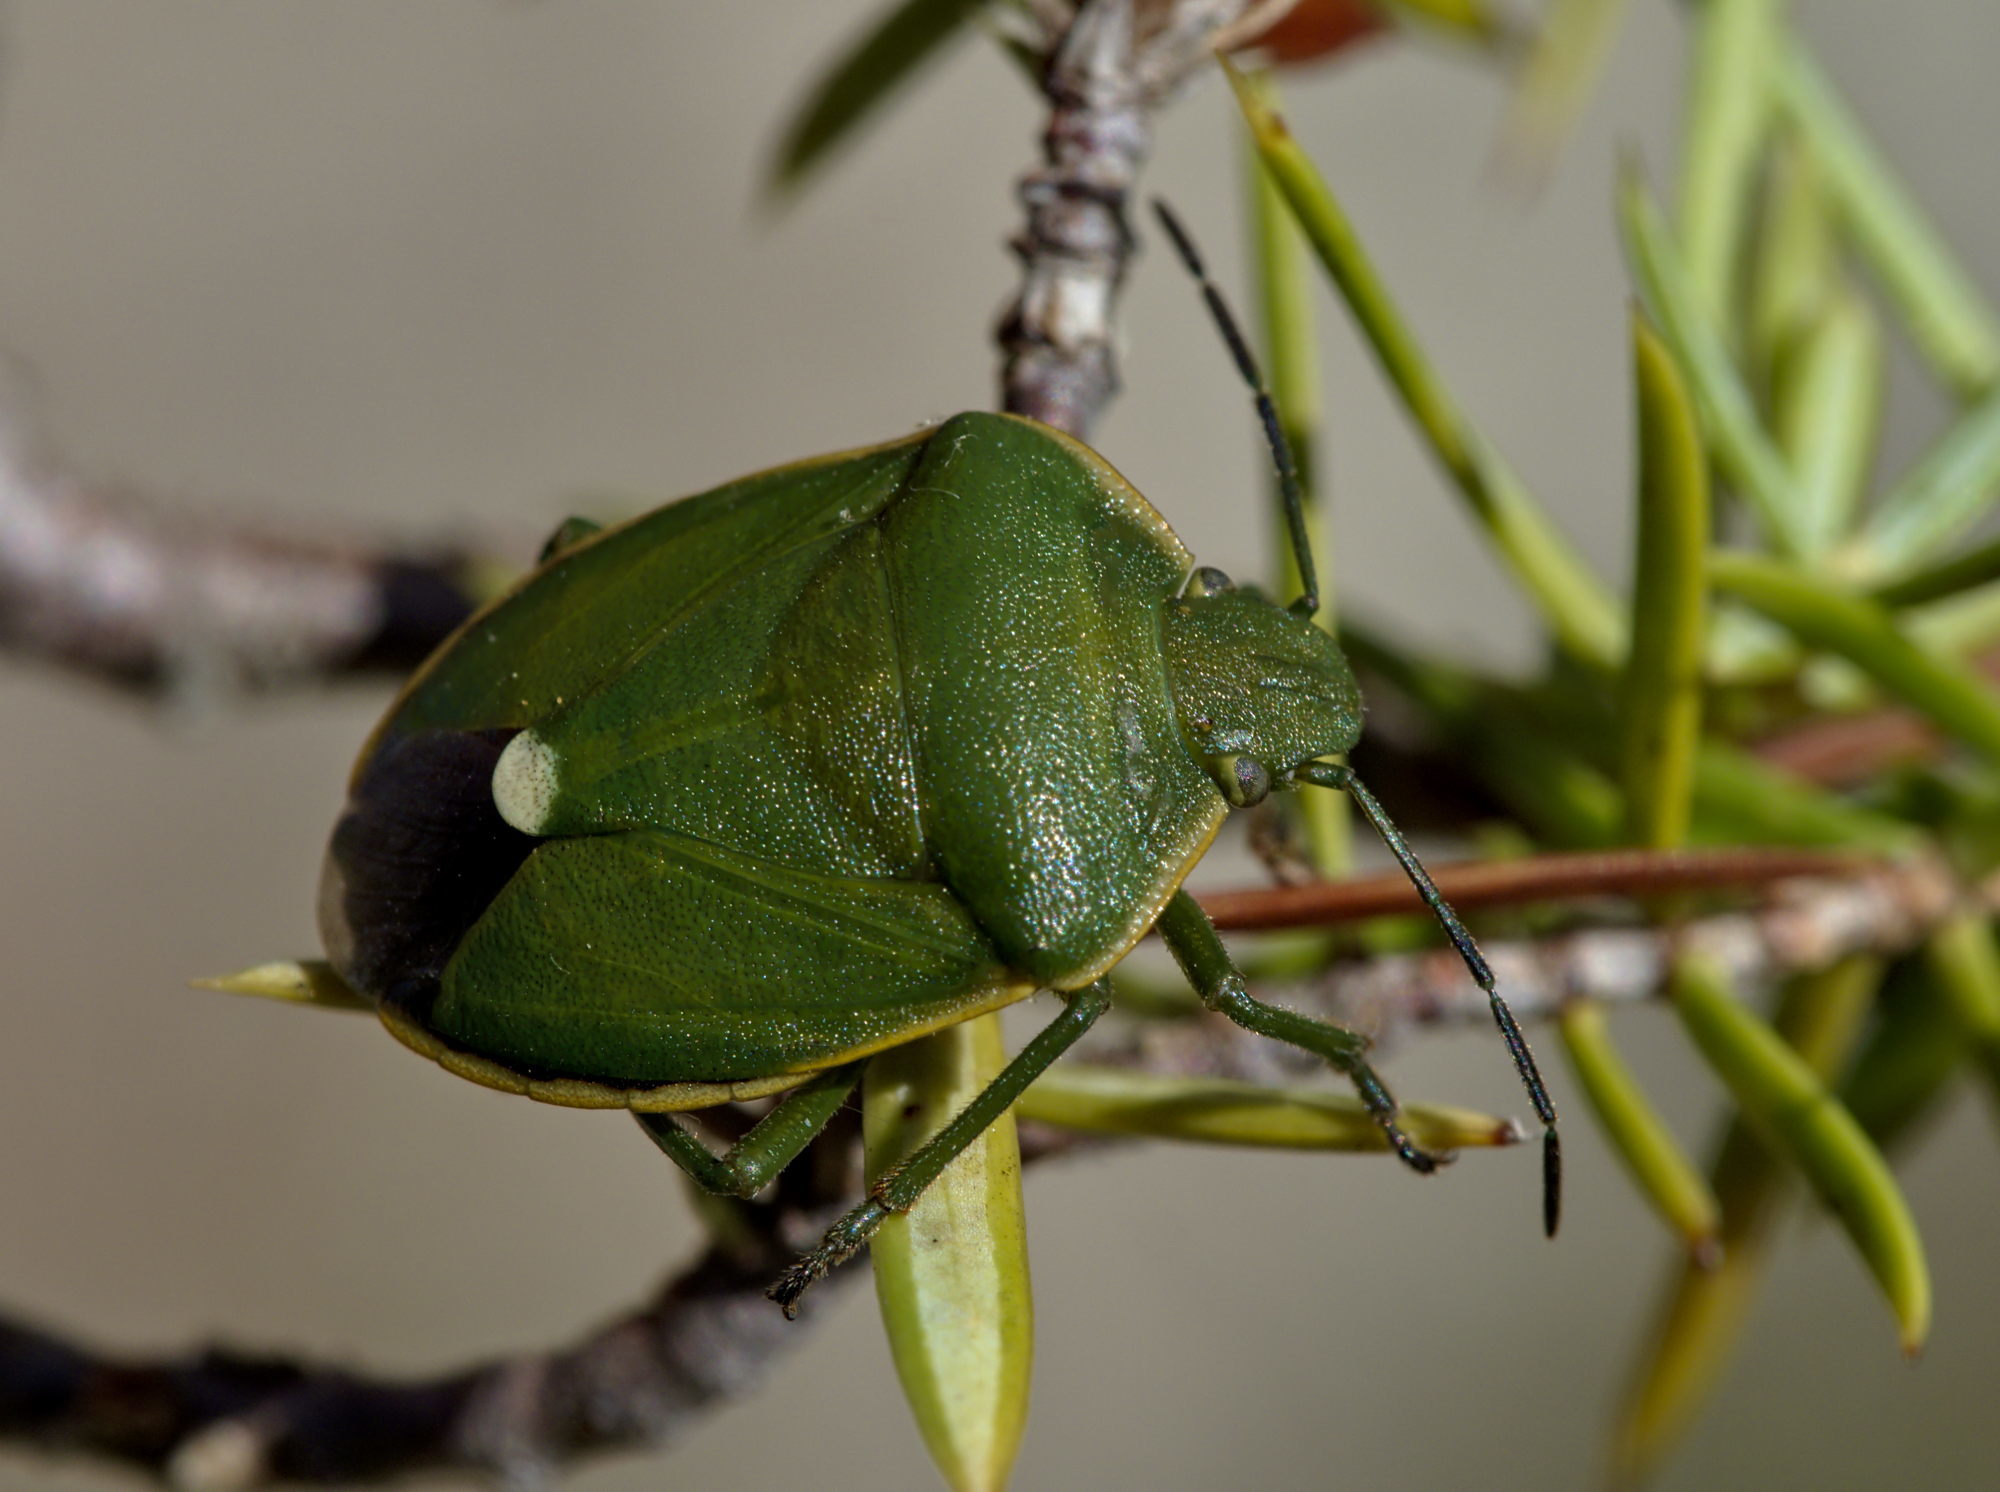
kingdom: Animalia
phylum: Arthropoda
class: Insecta
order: Hemiptera
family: Pentatomidae
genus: Chlorochroa
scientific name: Chlorochroa juniperina
